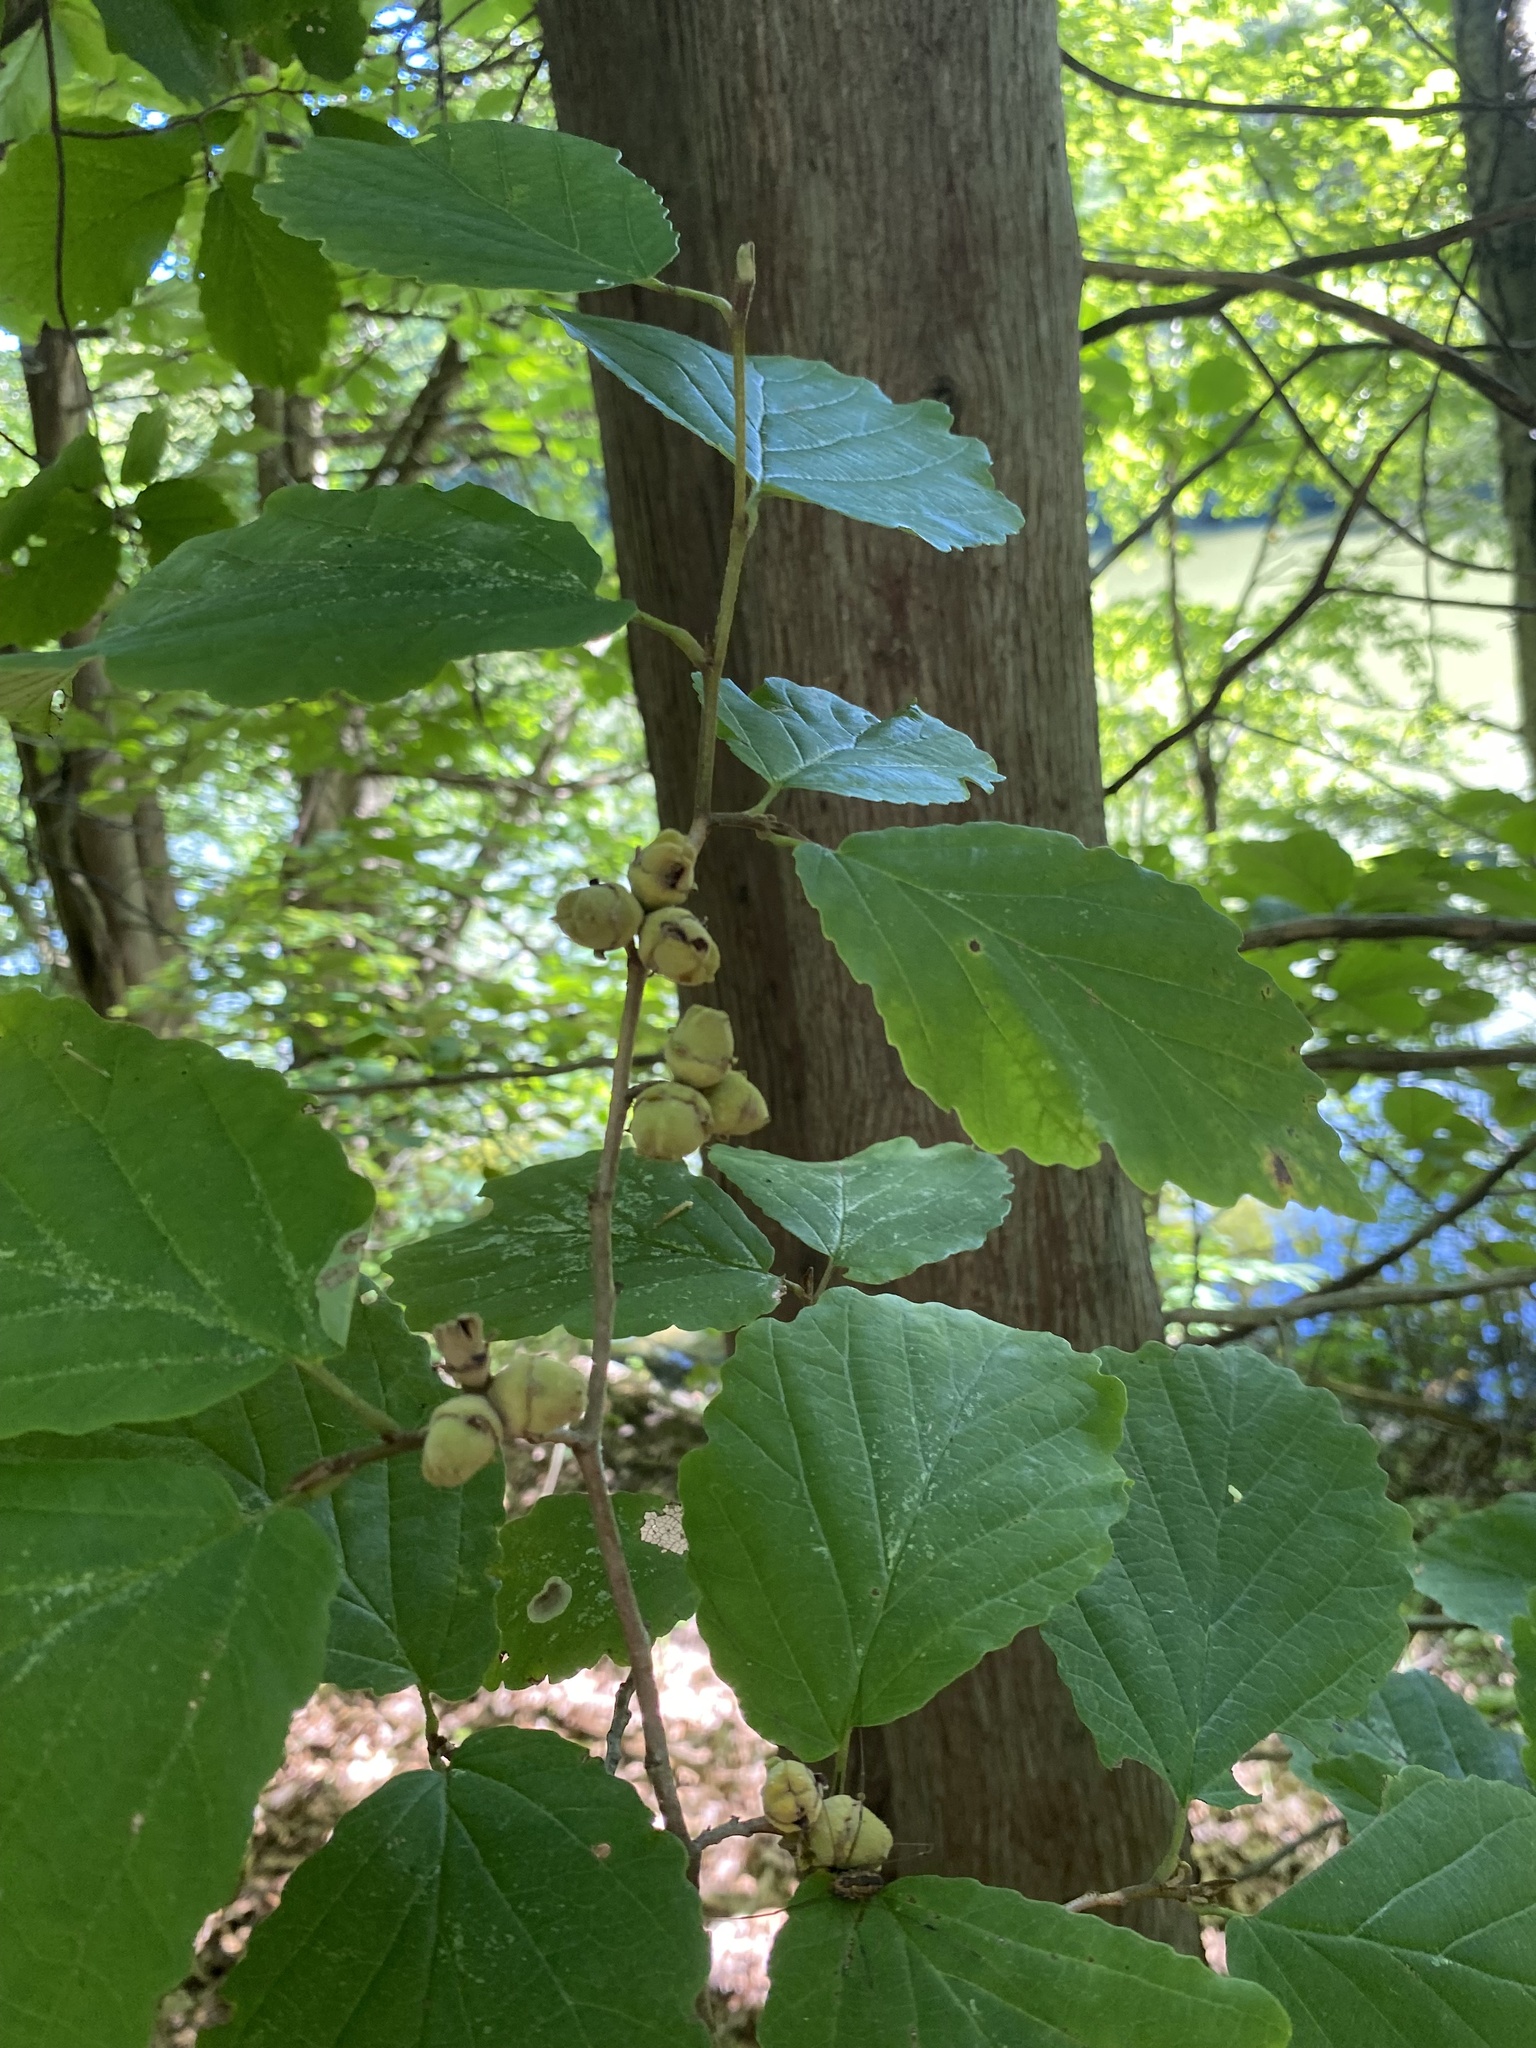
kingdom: Plantae
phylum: Tracheophyta
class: Magnoliopsida
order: Saxifragales
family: Hamamelidaceae
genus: Hamamelis
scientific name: Hamamelis virginiana
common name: Witch-hazel
